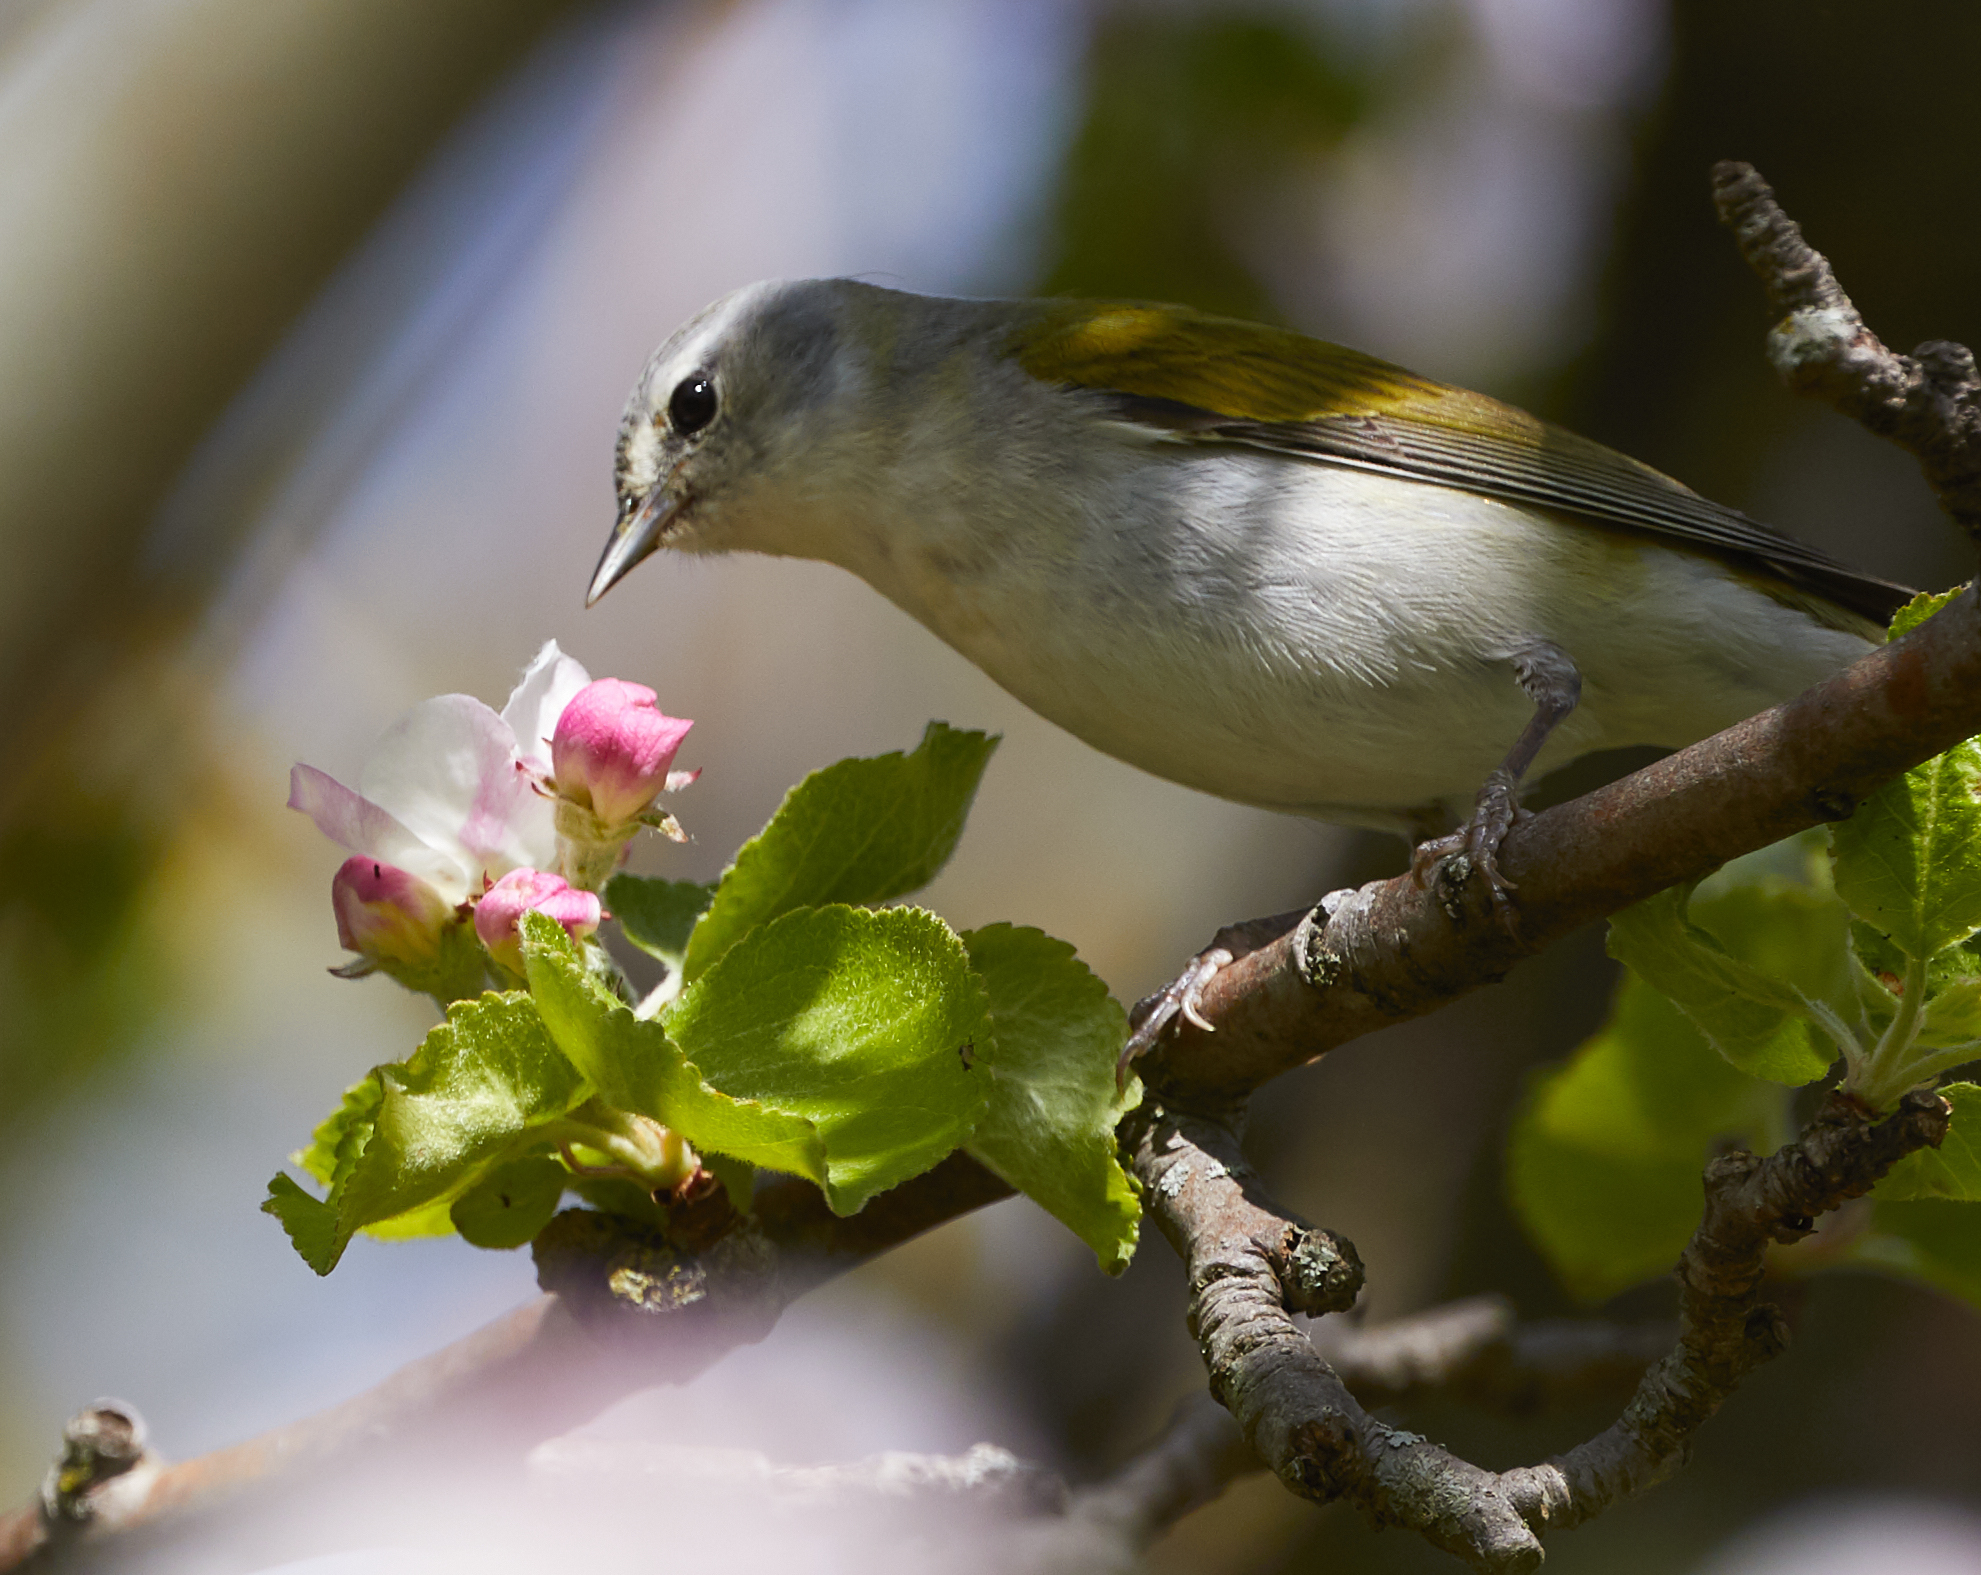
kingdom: Animalia
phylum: Chordata
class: Aves
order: Passeriformes
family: Parulidae
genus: Leiothlypis
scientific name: Leiothlypis peregrina
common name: Tennessee warbler
